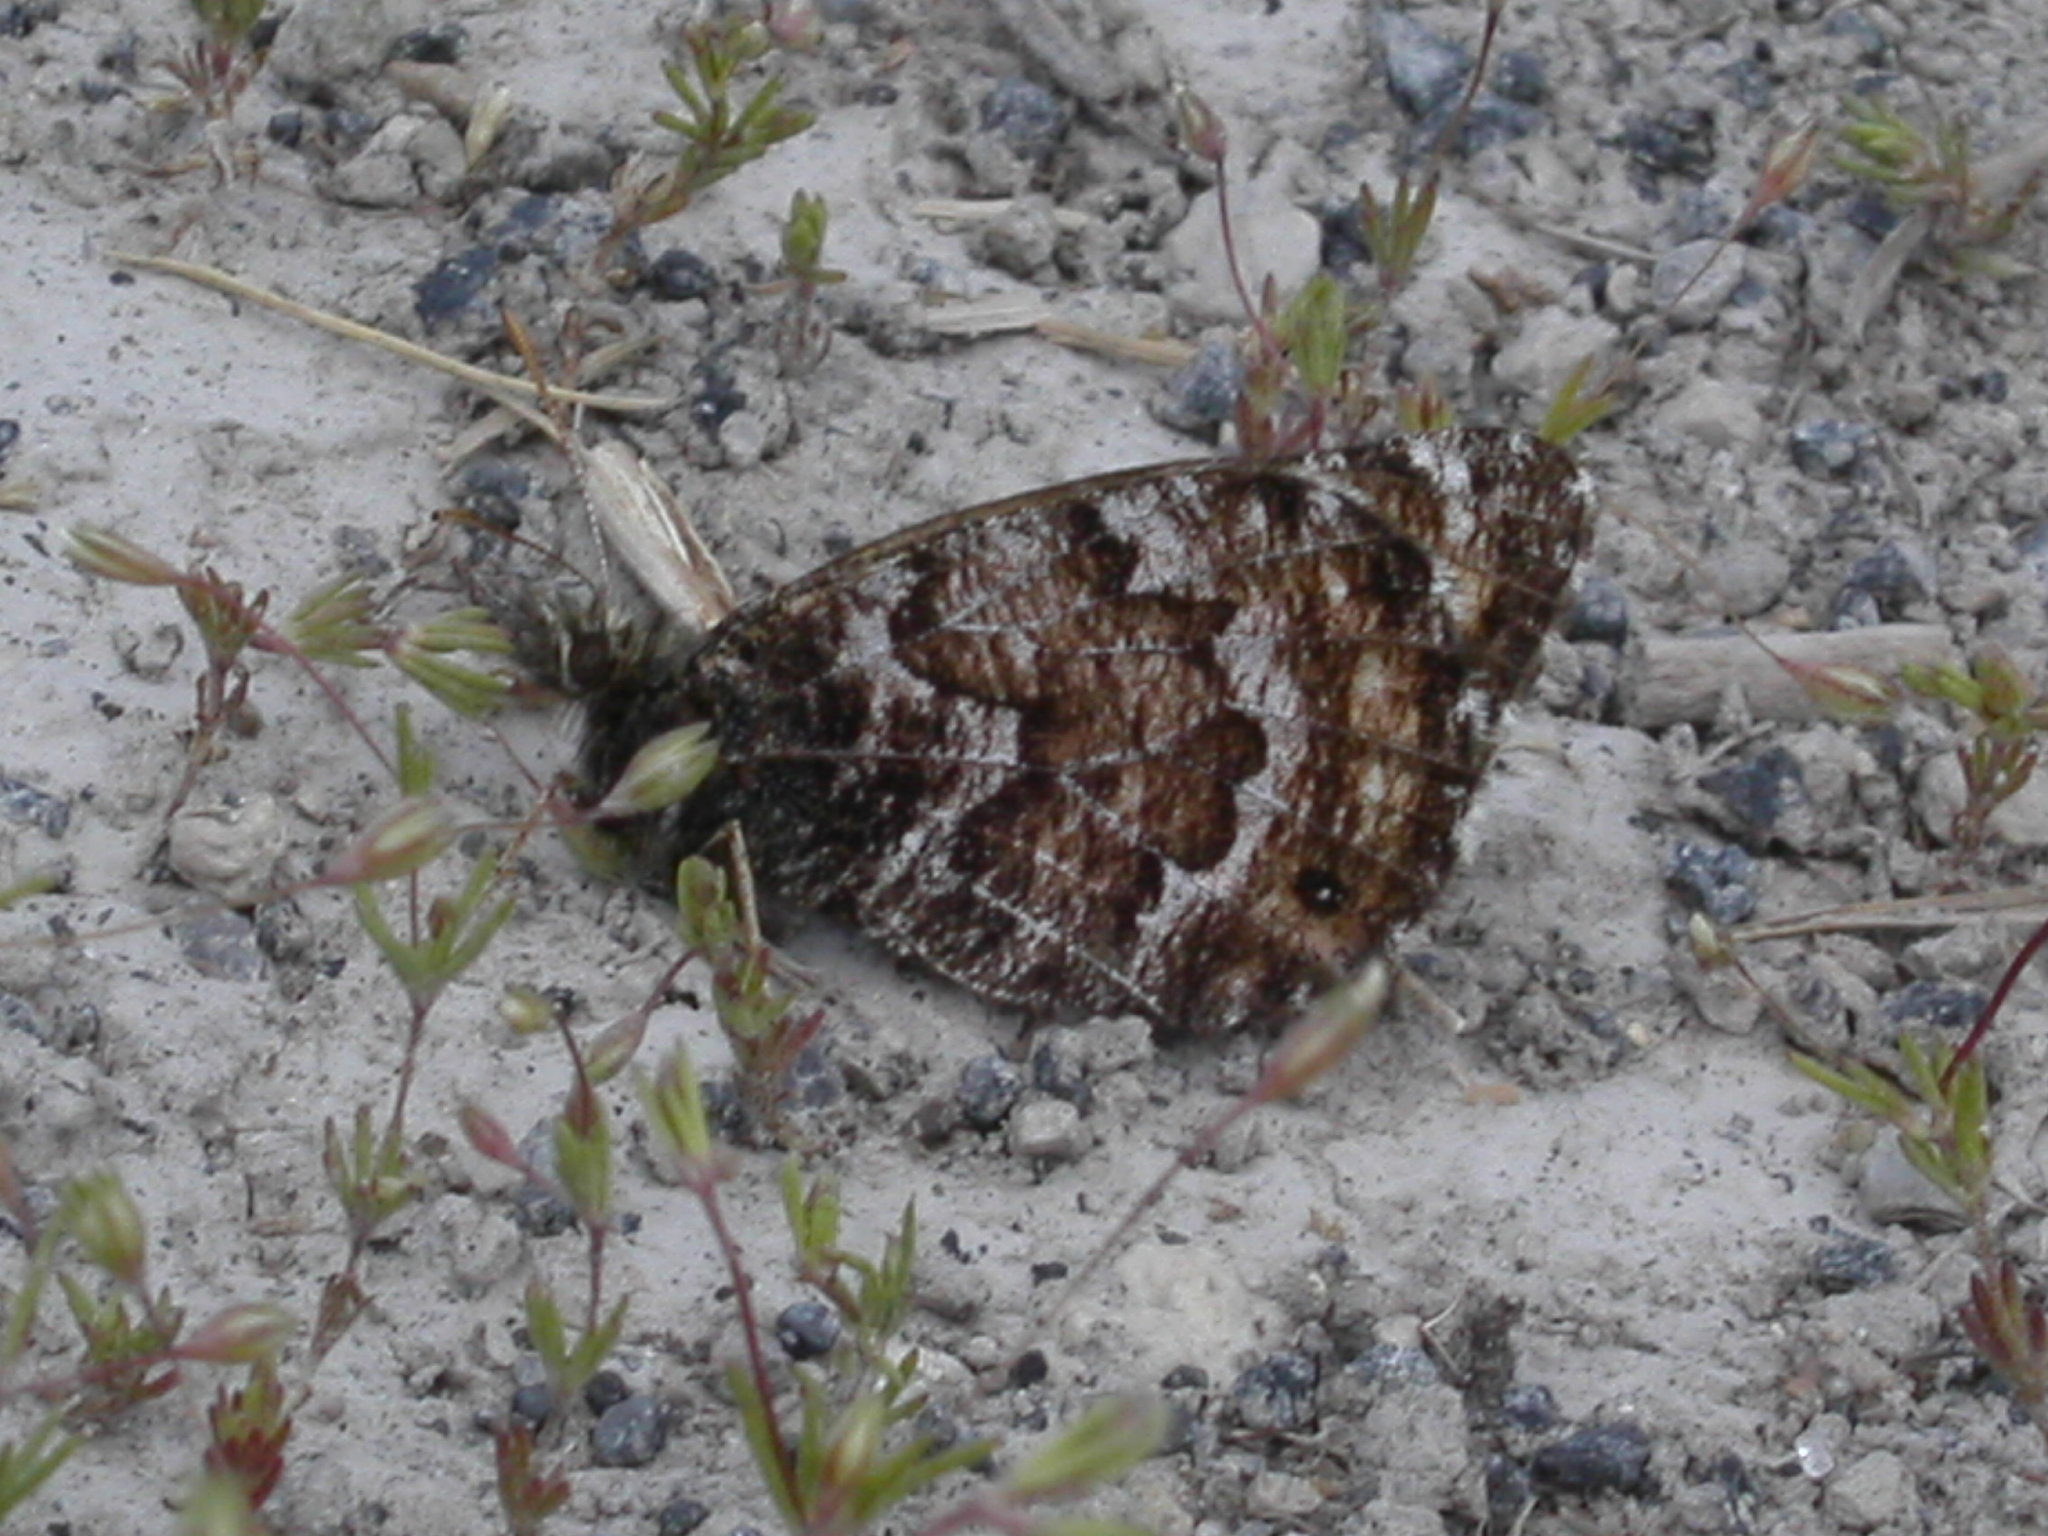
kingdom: Animalia
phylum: Arthropoda
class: Insecta
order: Lepidoptera
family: Nymphalidae
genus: Oeneis
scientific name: Oeneis chryxus
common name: Chryxus arctic
